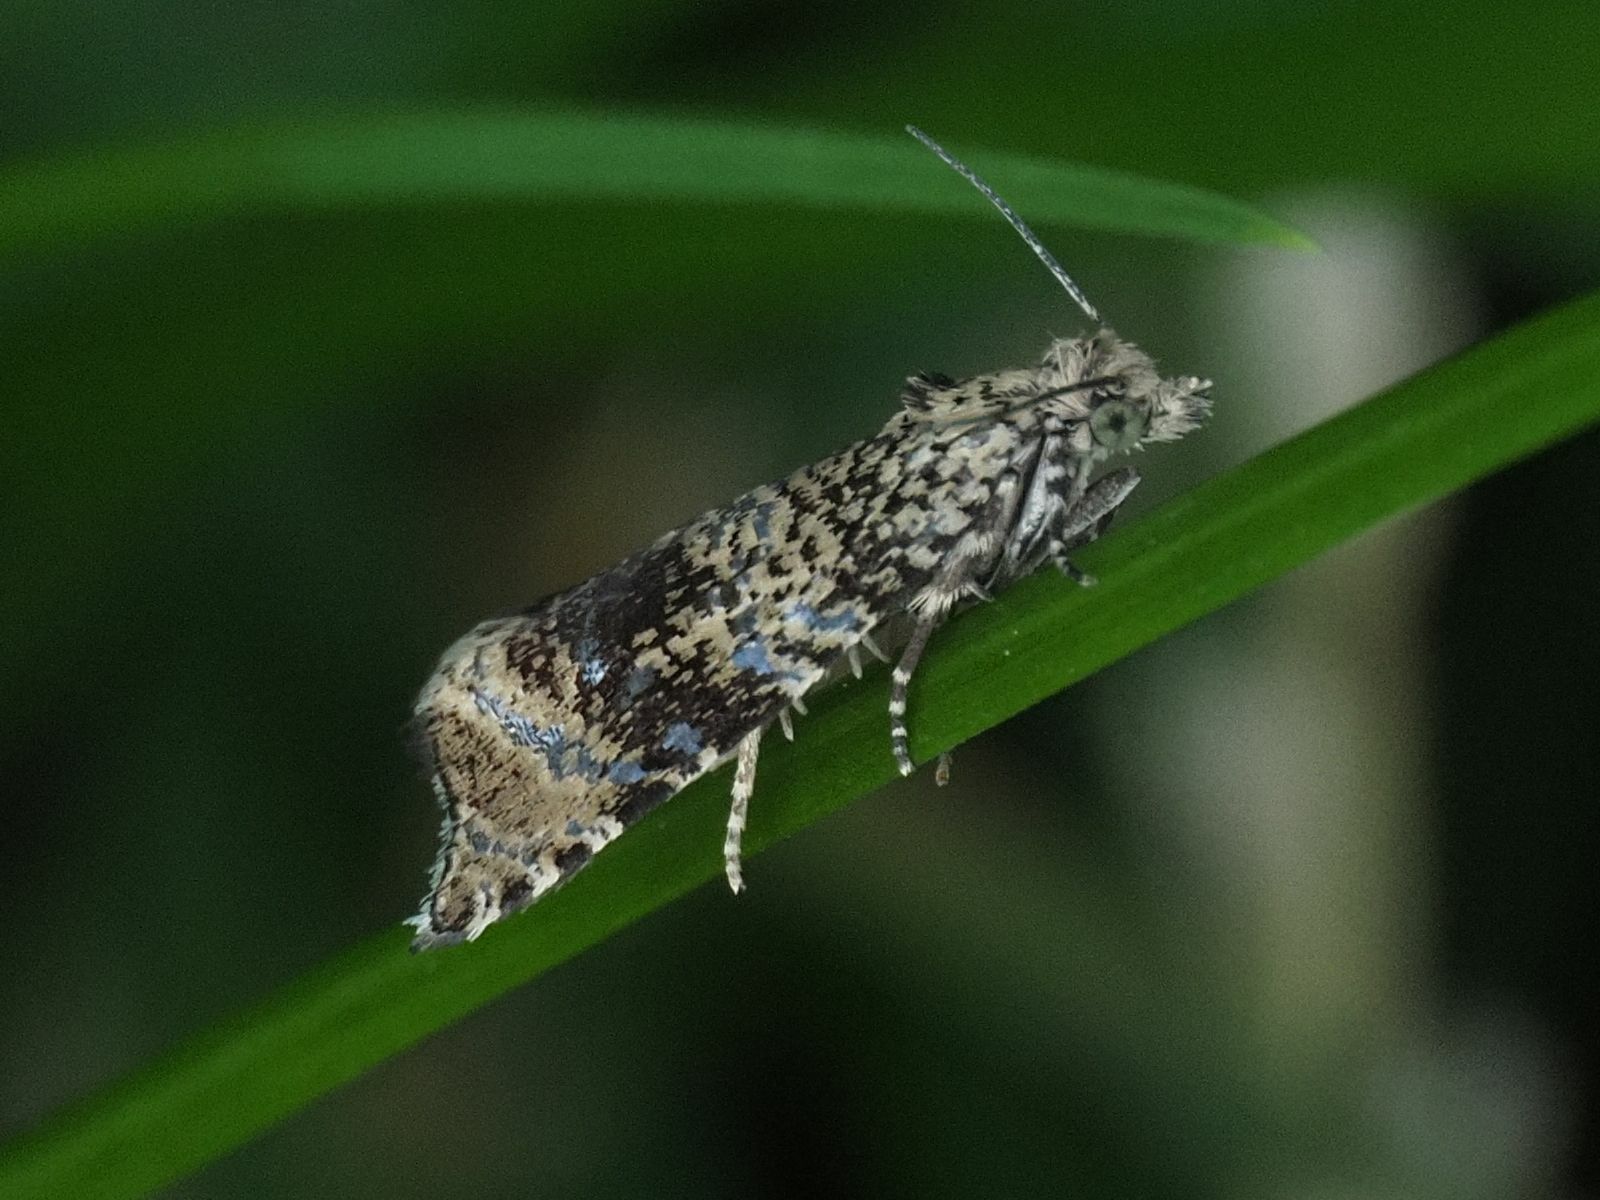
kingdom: Animalia
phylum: Arthropoda
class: Insecta
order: Lepidoptera
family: Tortricidae
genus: Syricoris
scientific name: Syricoris lacunana
